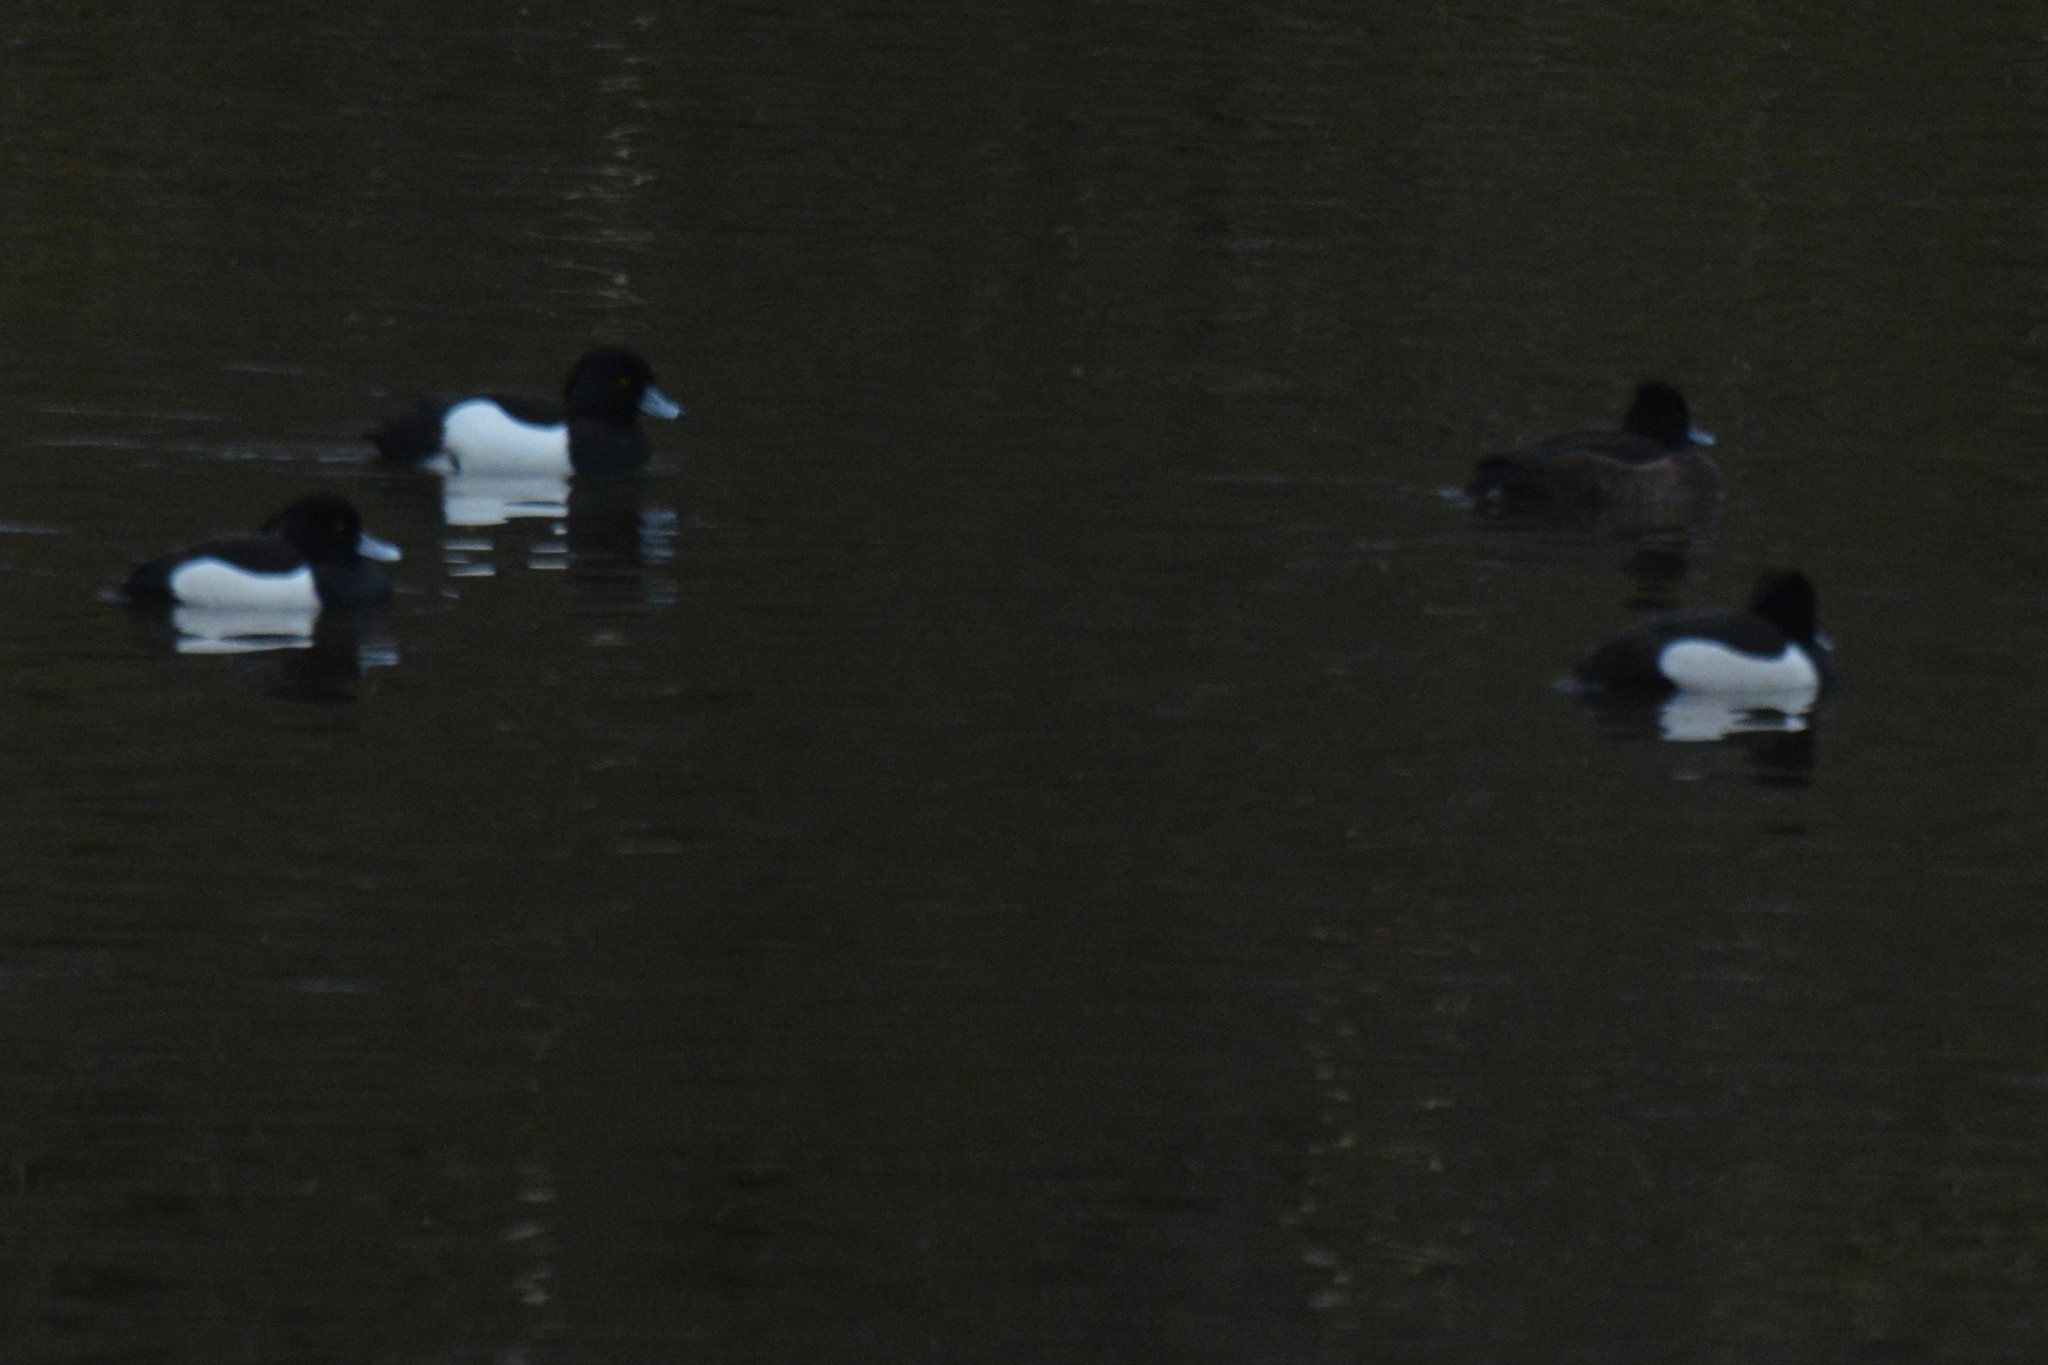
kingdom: Animalia
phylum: Chordata
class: Aves
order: Anseriformes
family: Anatidae
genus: Aythya
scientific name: Aythya fuligula
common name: Tufted duck
